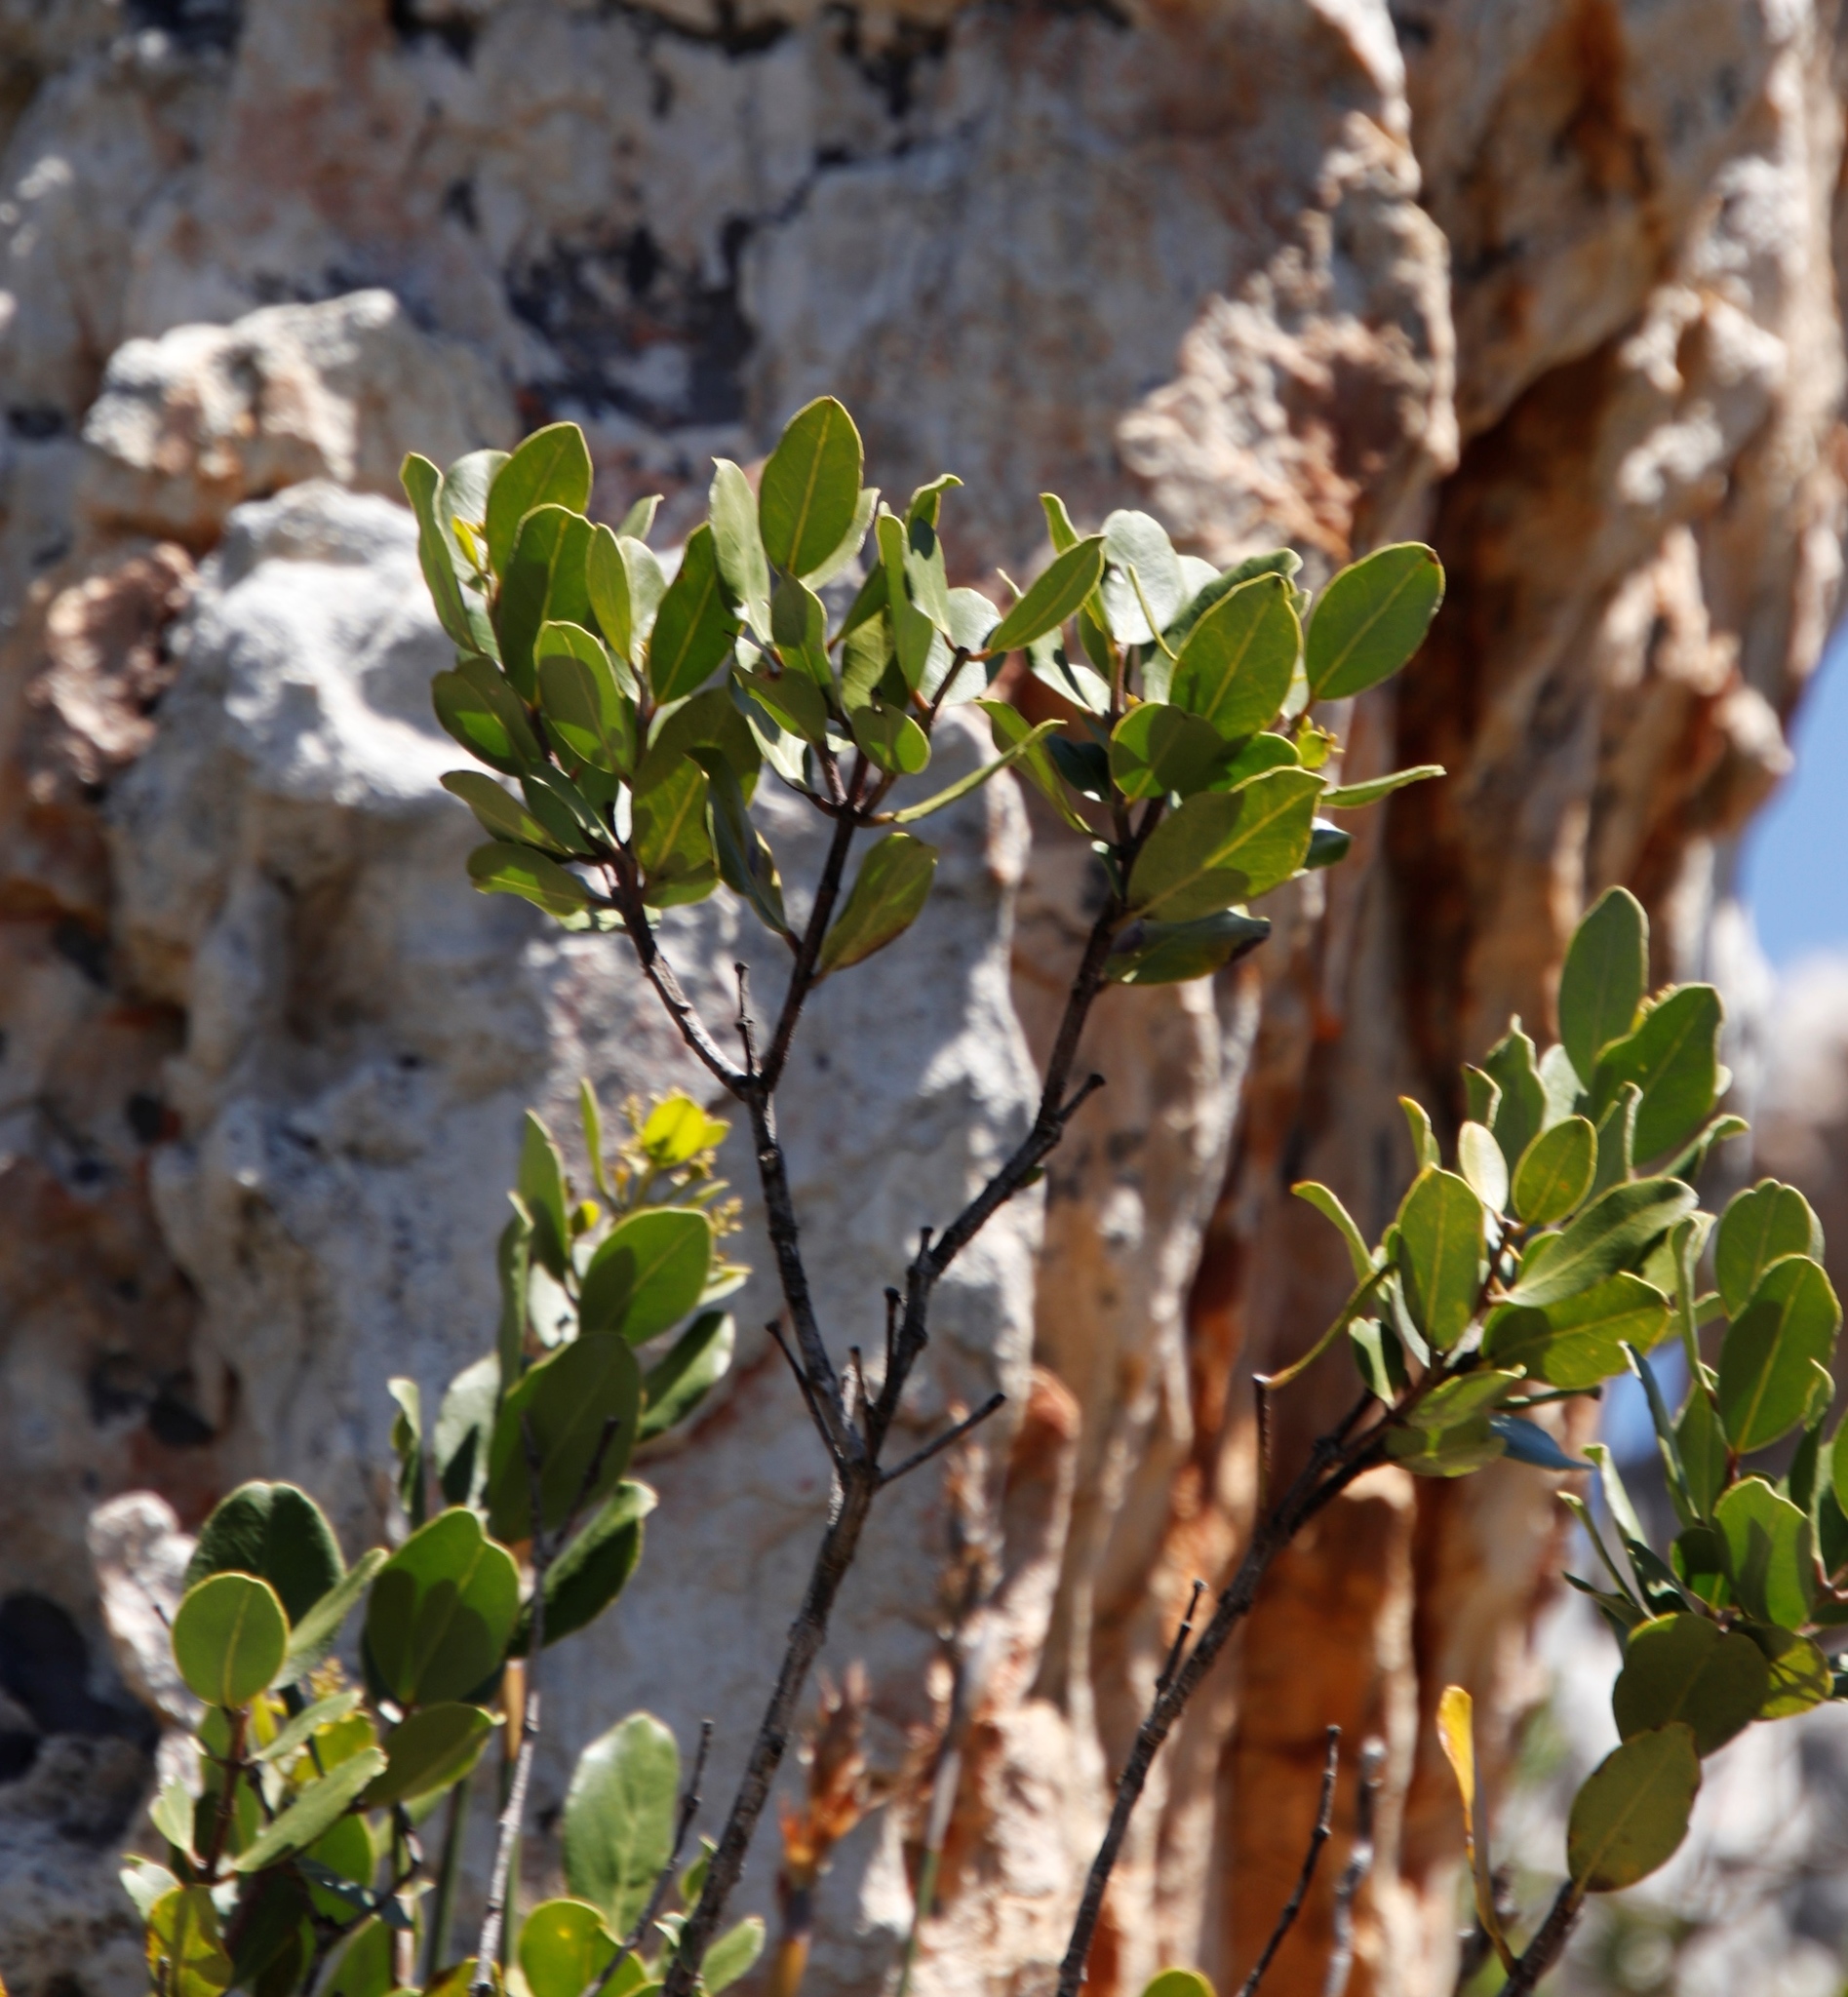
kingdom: Plantae
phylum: Tracheophyta
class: Magnoliopsida
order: Celastrales
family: Celastraceae
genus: Gymnosporia
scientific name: Gymnosporia laurina
